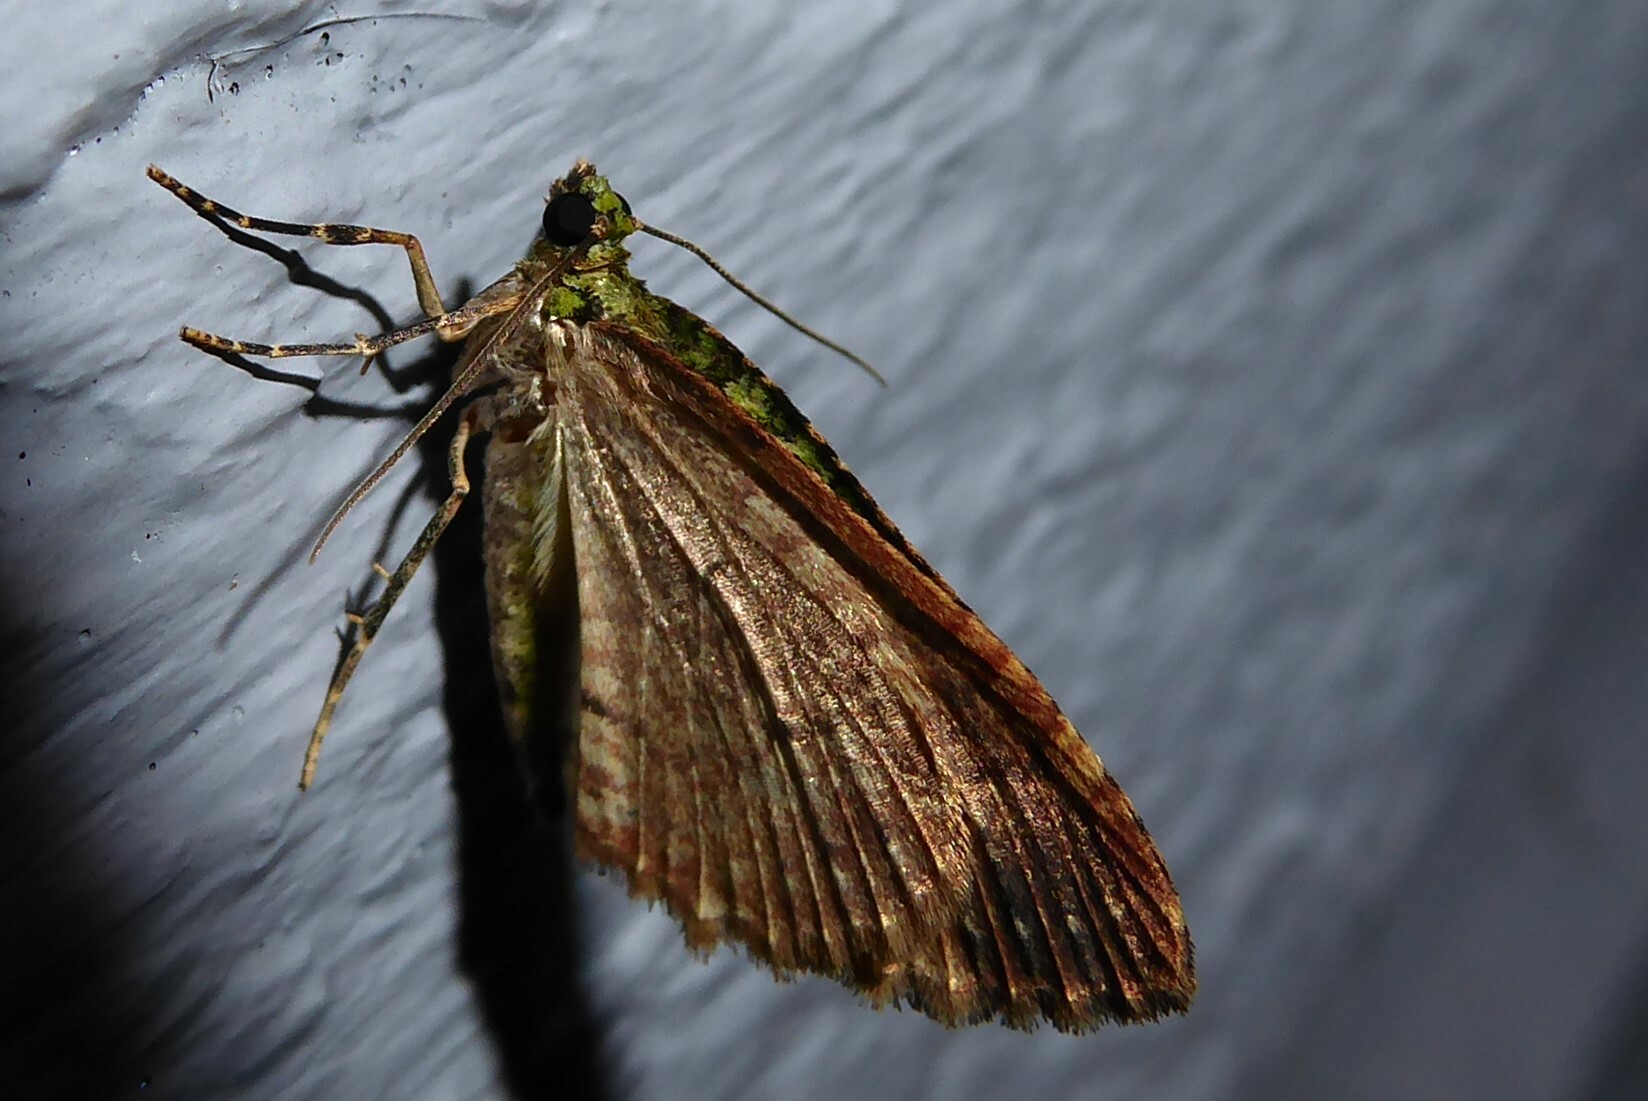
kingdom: Animalia
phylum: Arthropoda
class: Insecta
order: Lepidoptera
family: Geometridae
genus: Austrocidaria
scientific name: Austrocidaria similata
